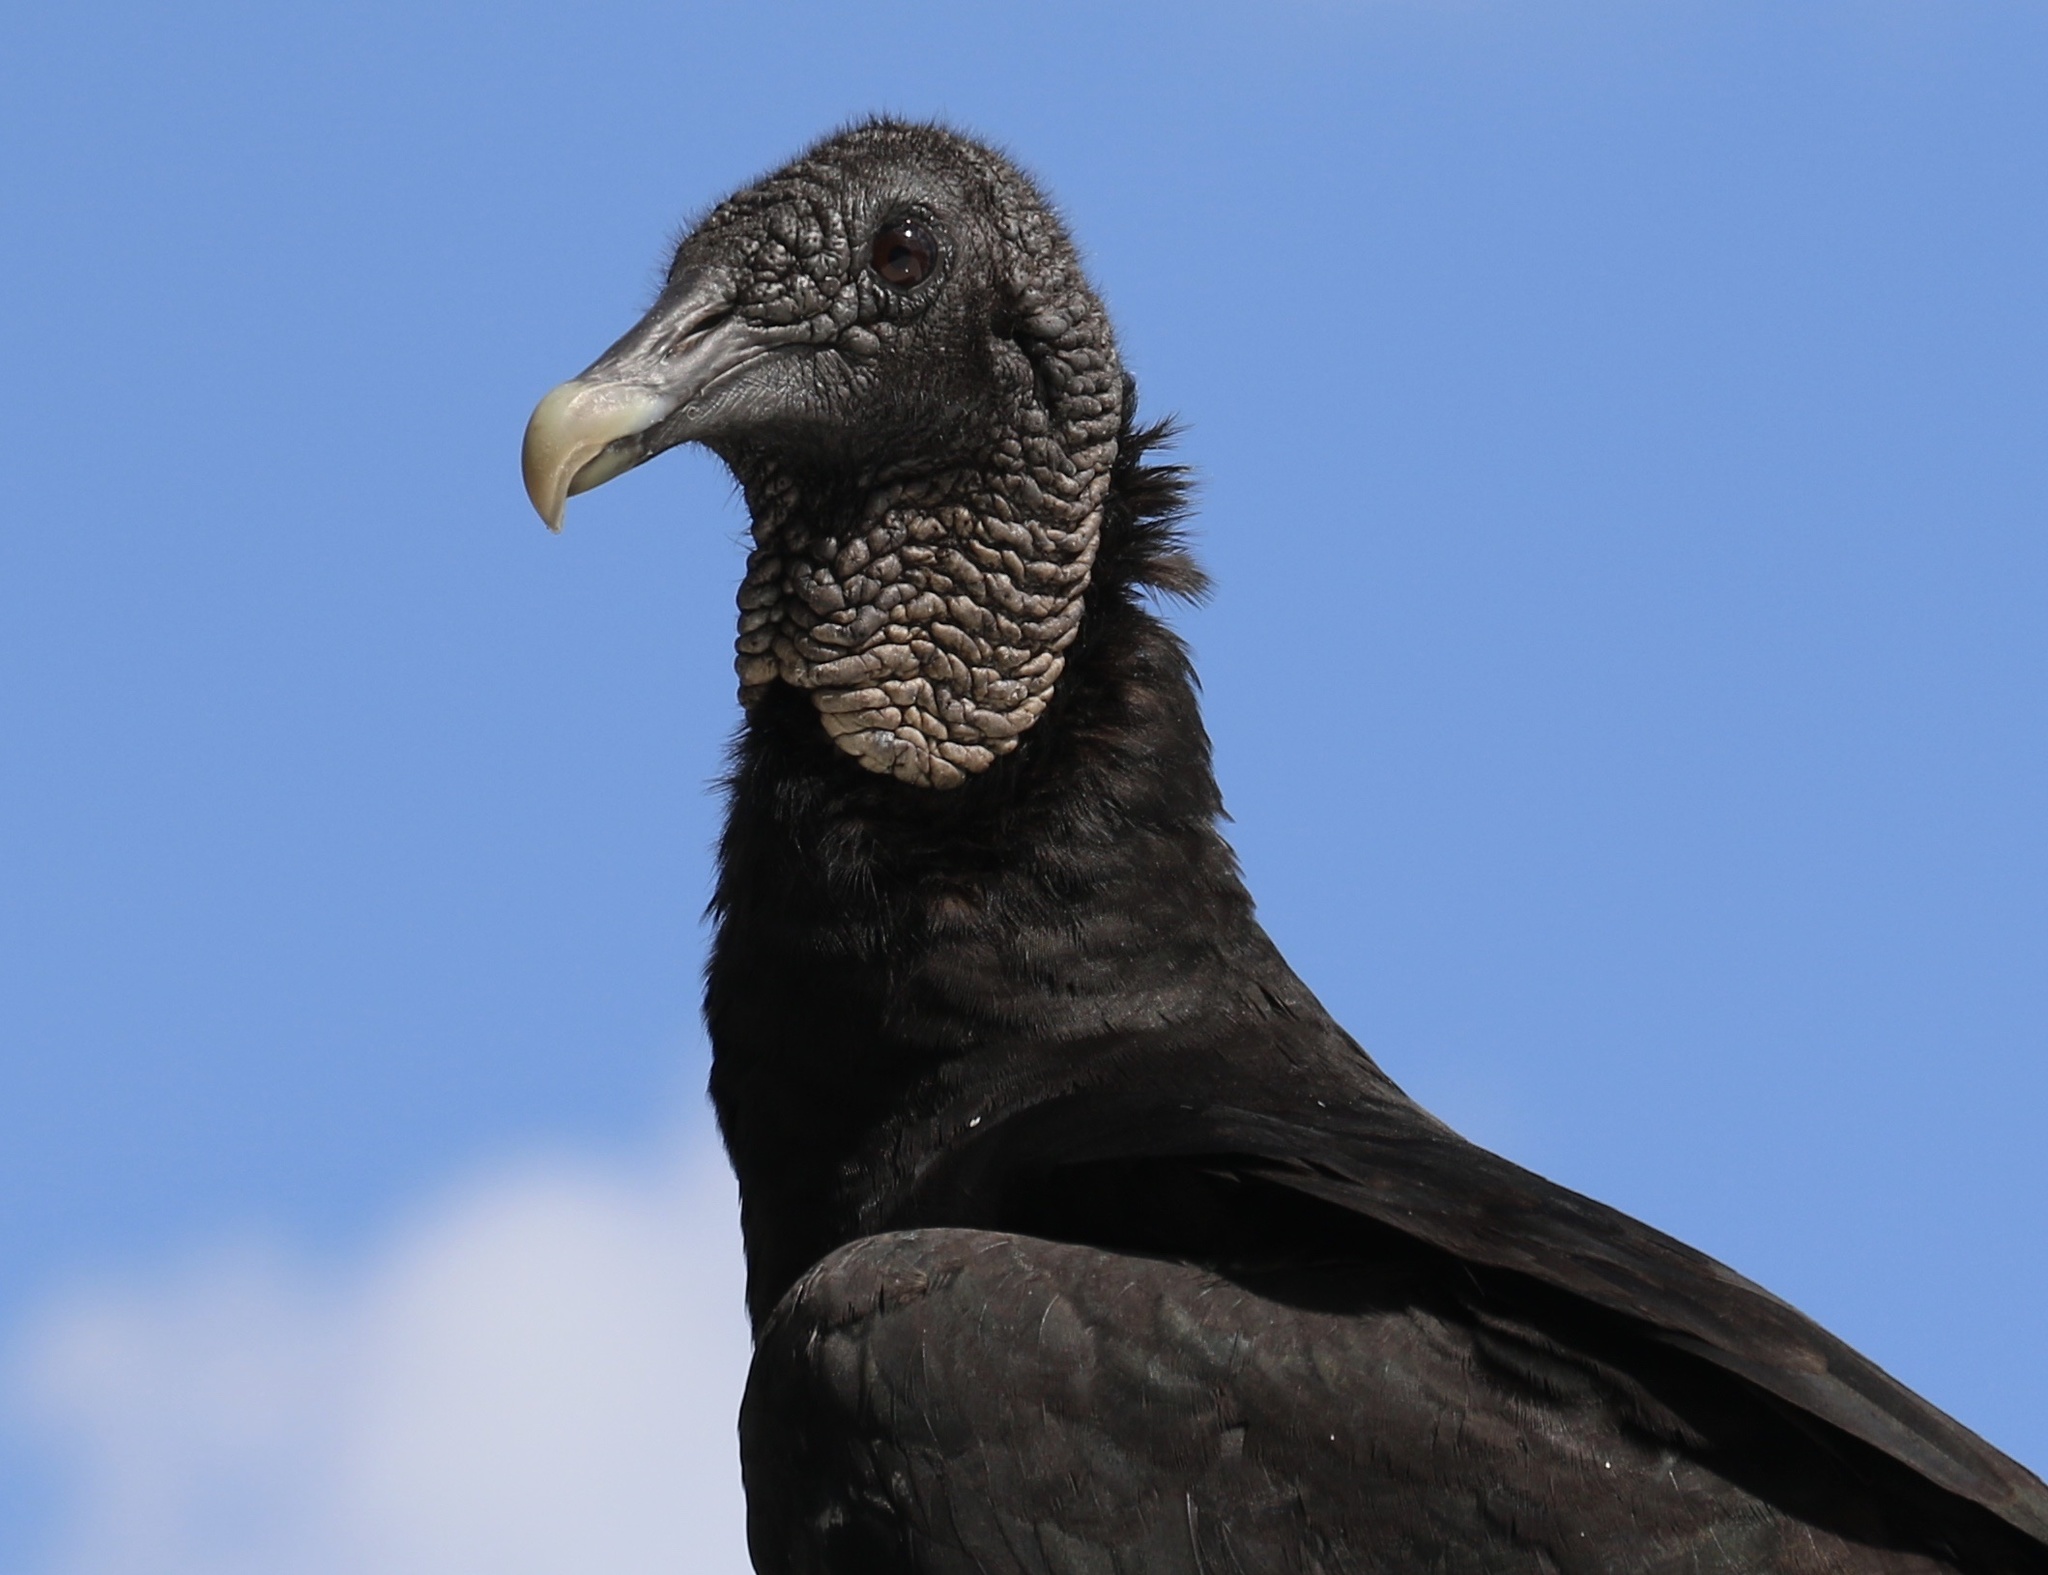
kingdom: Animalia
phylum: Chordata
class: Aves
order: Accipitriformes
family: Cathartidae
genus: Coragyps
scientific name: Coragyps atratus
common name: Black vulture
